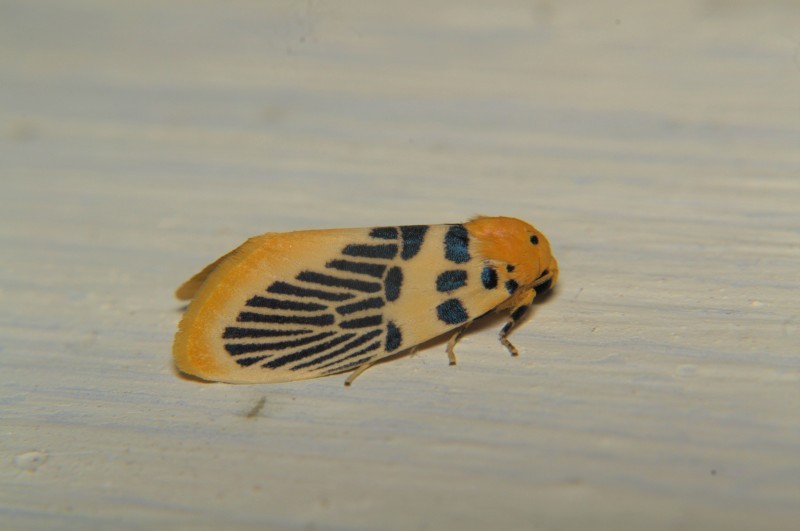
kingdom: Animalia
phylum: Arthropoda
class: Insecta
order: Lepidoptera
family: Erebidae
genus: Stigmatophora
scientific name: Stigmatophora palmata
